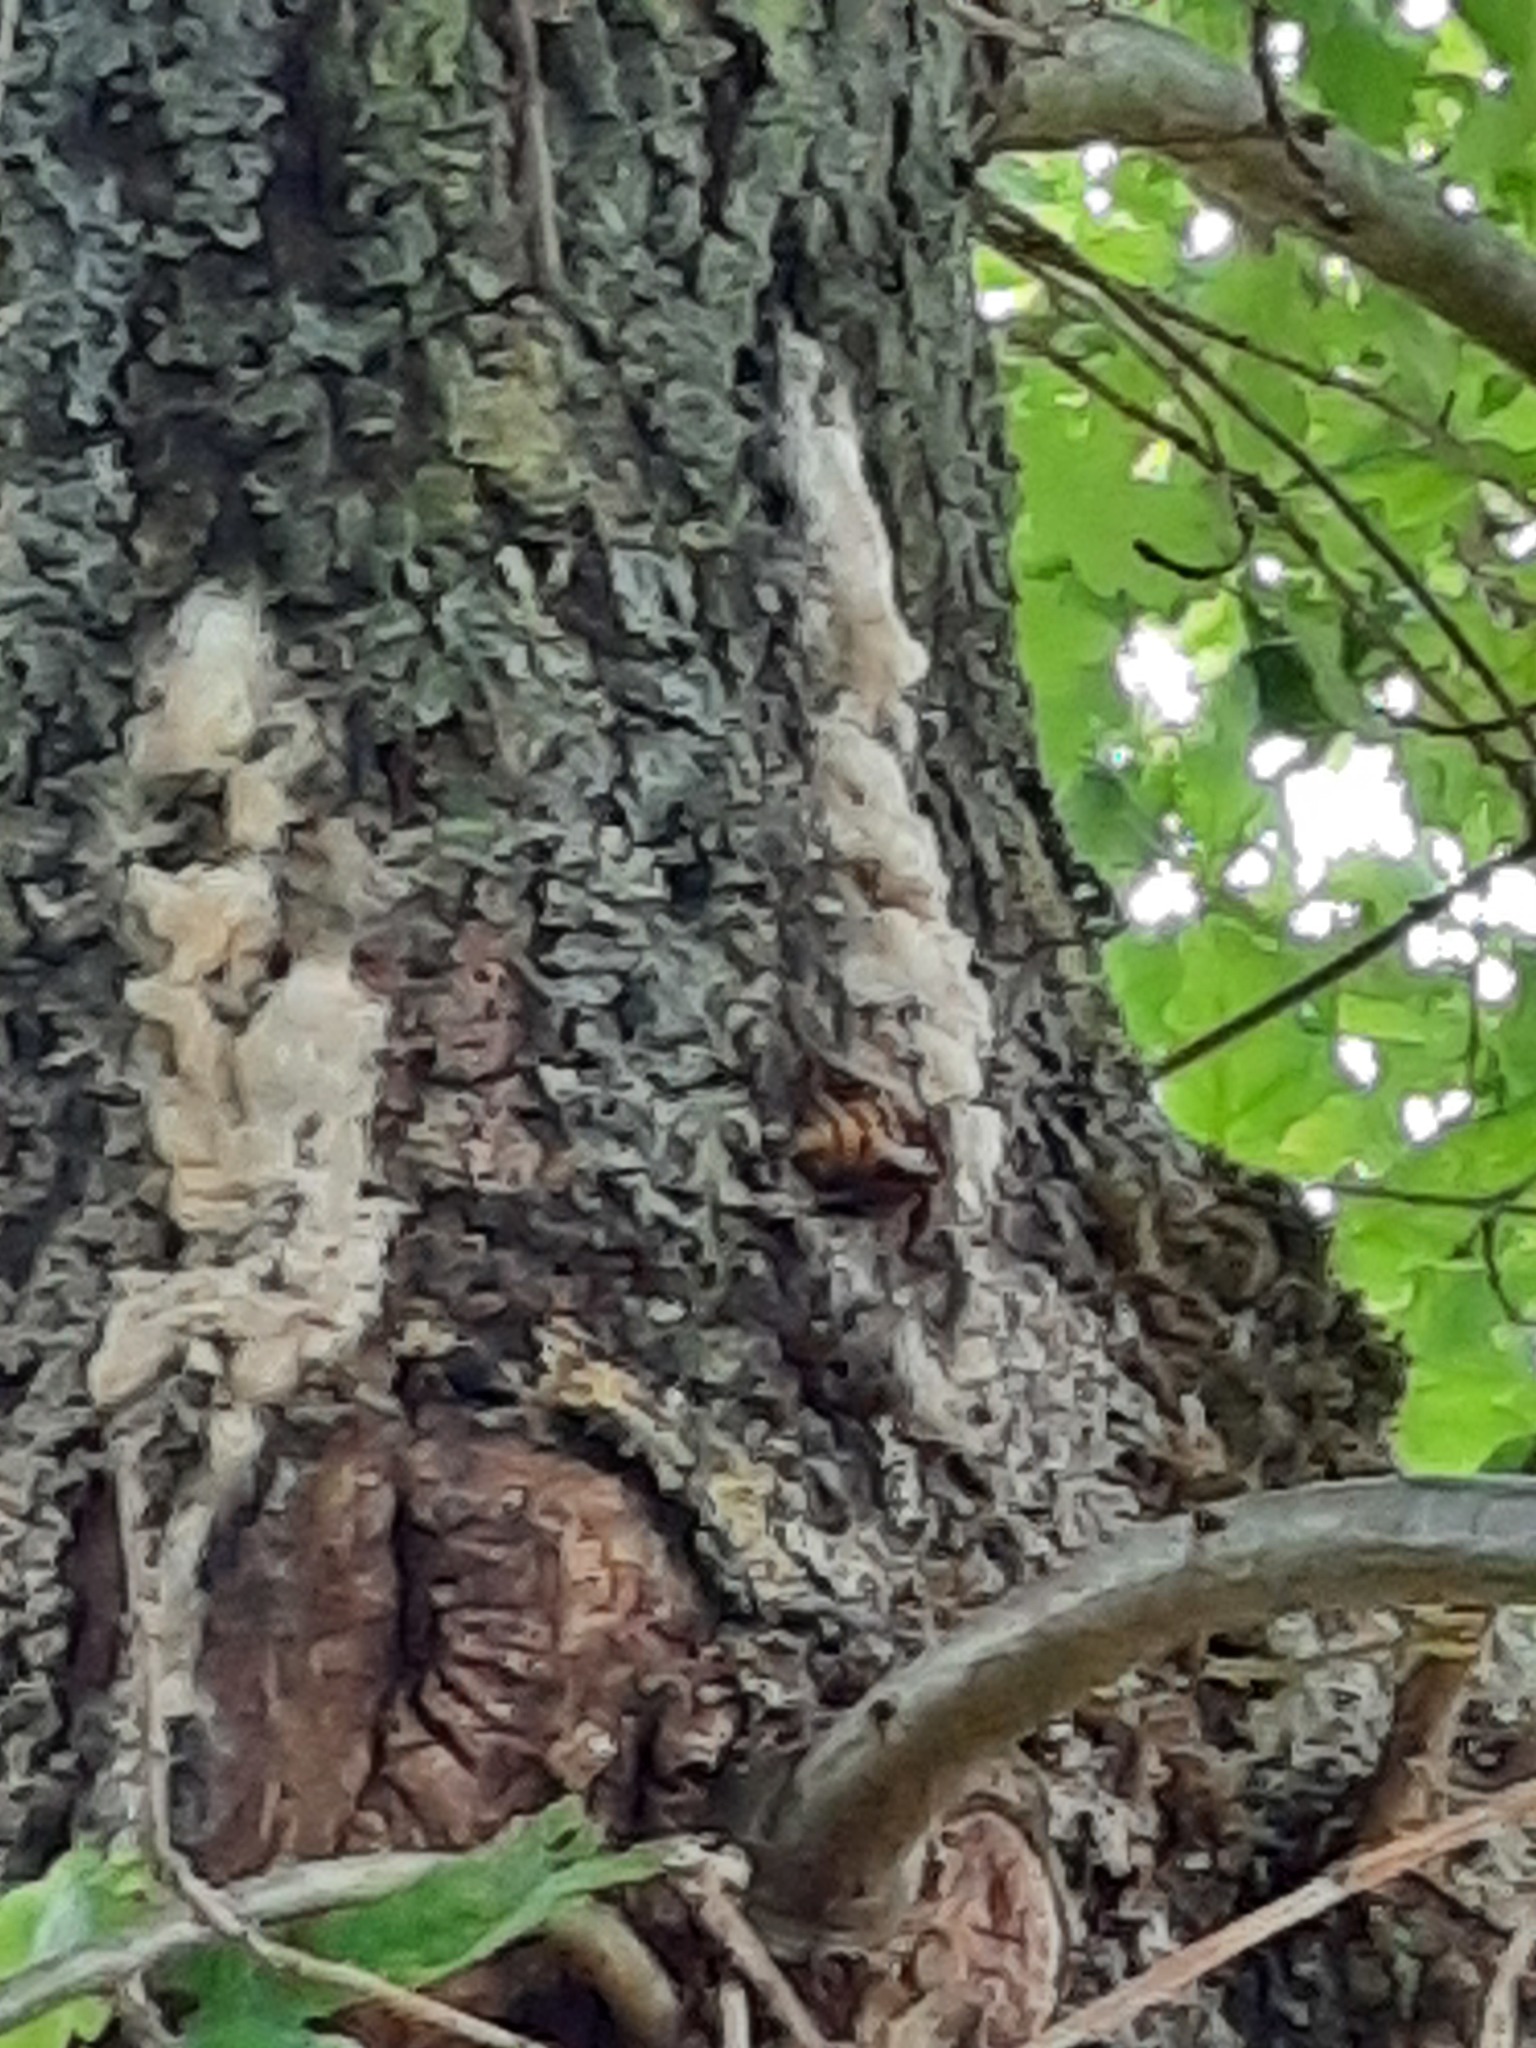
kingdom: Animalia
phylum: Arthropoda
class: Insecta
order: Hymenoptera
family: Vespidae
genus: Vespa
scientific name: Vespa crabro
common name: Hornet
